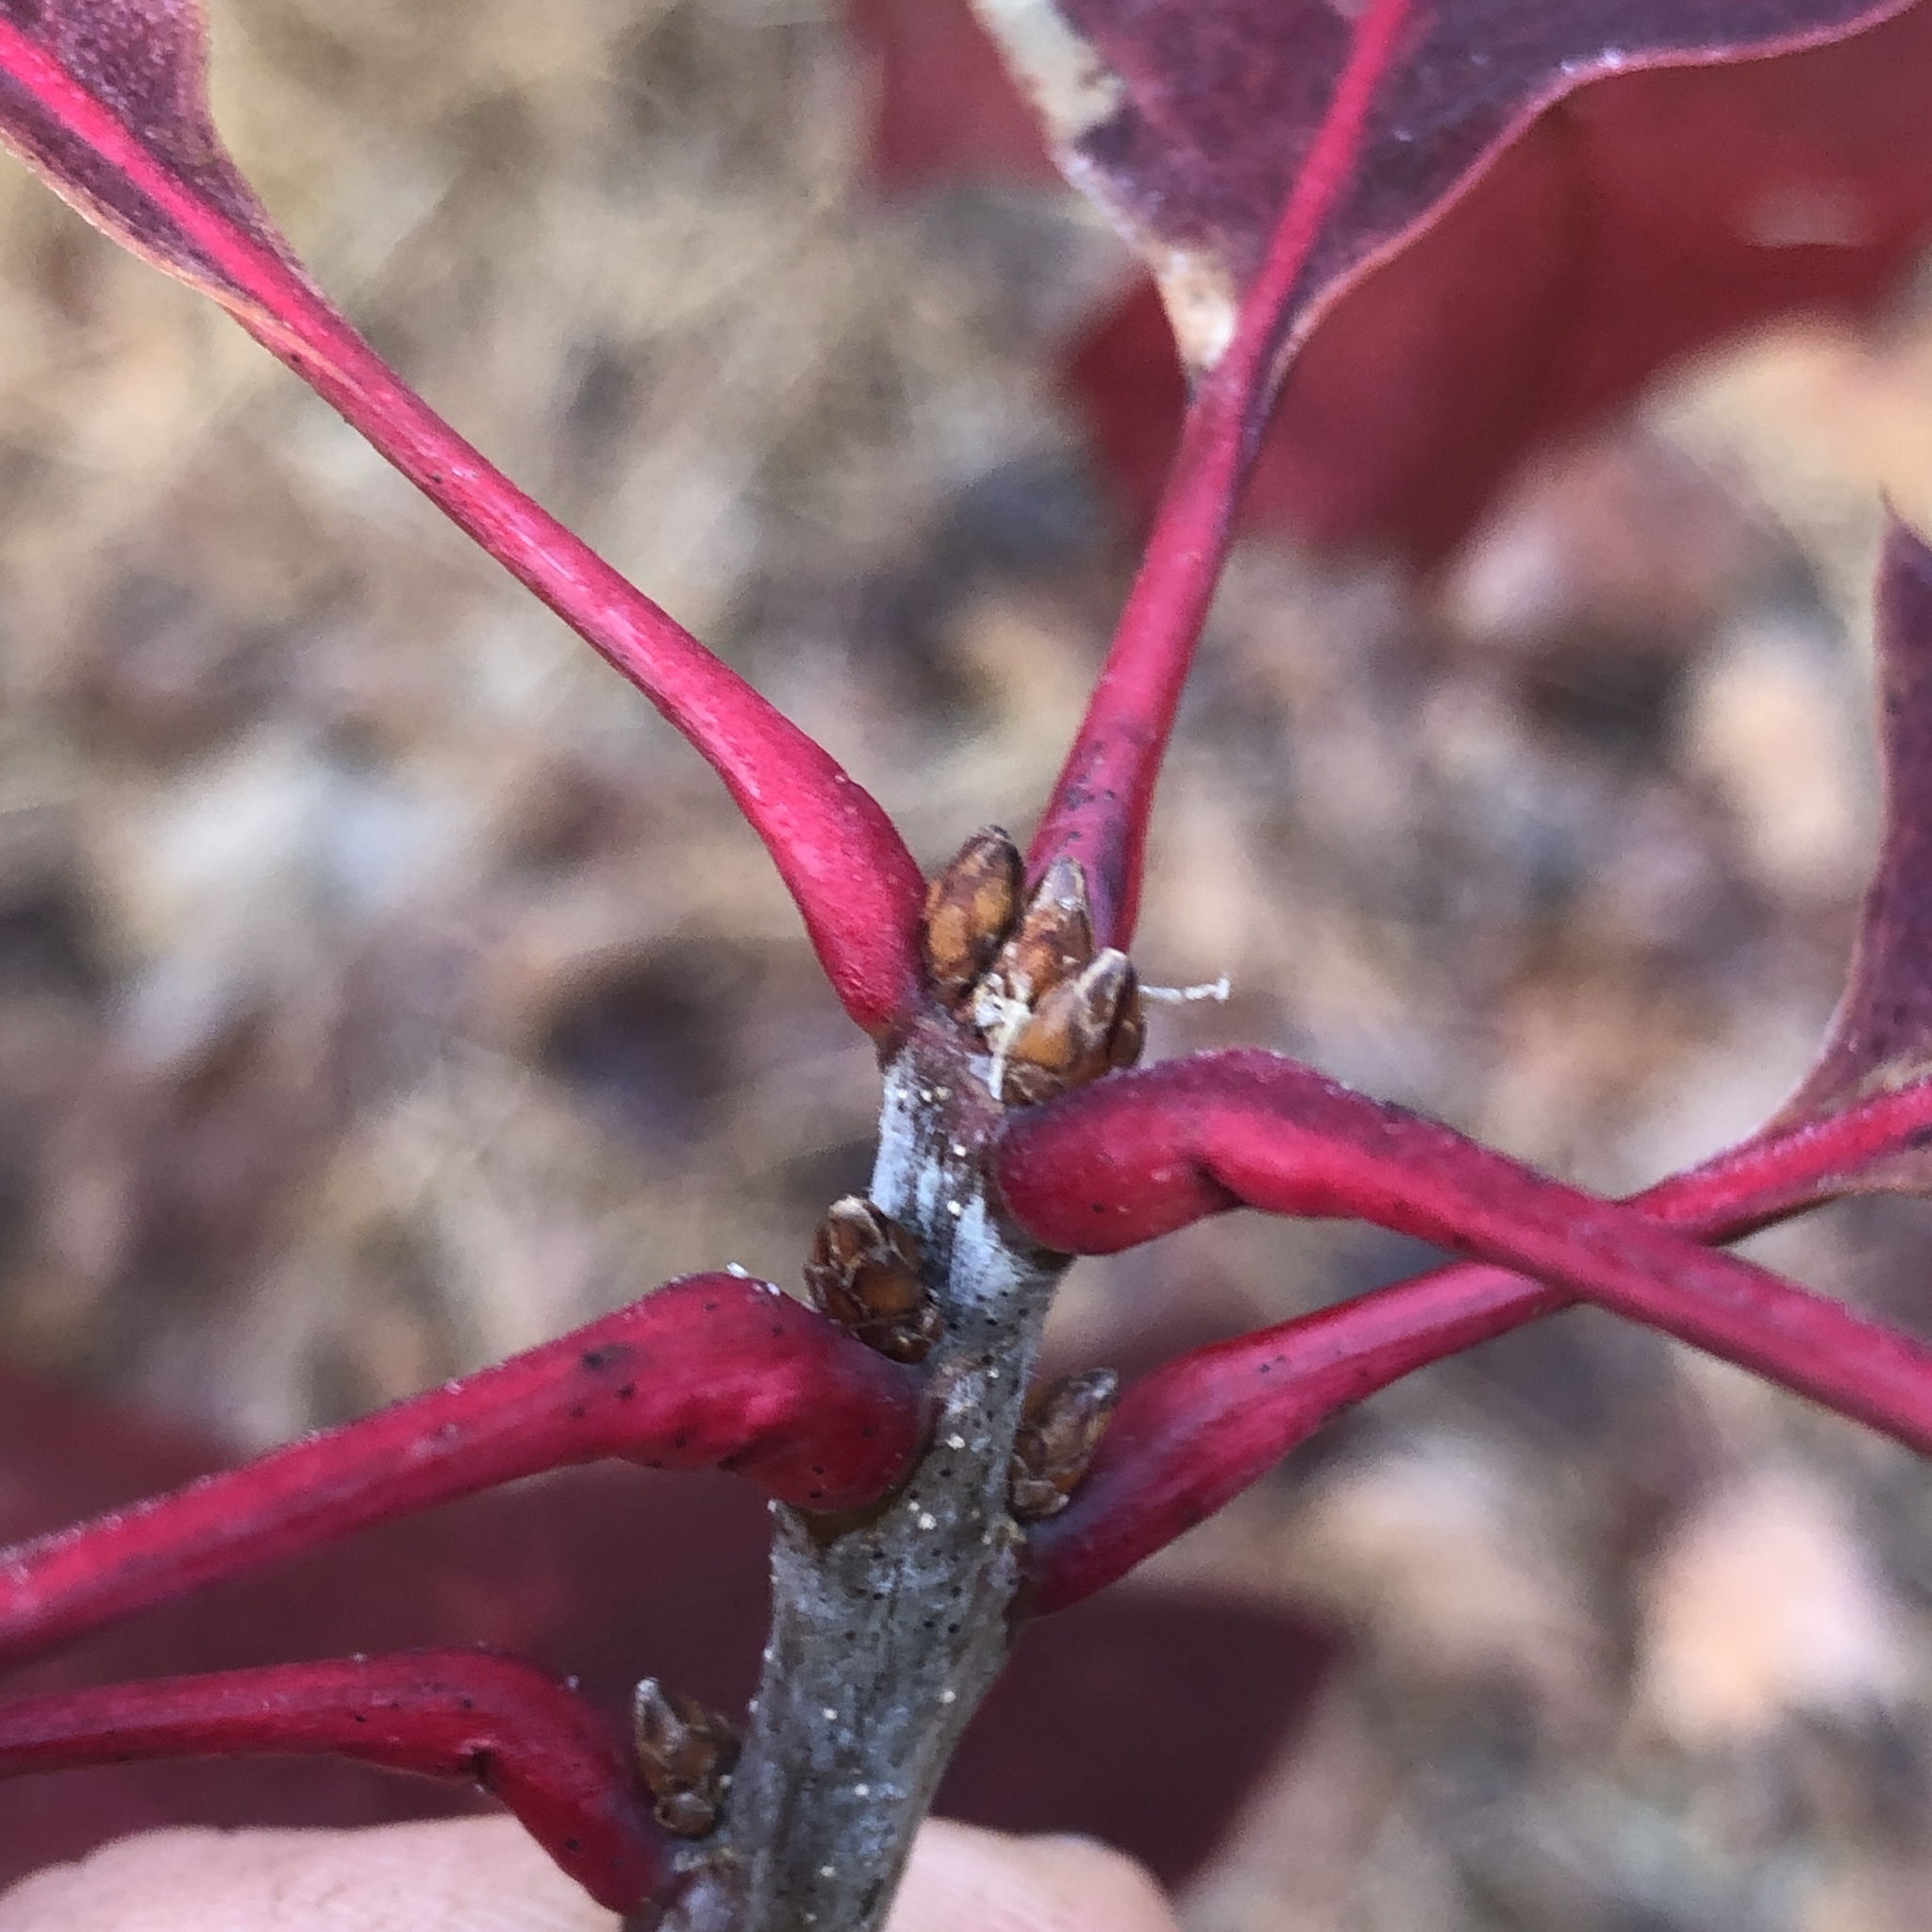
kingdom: Plantae
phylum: Tracheophyta
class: Magnoliopsida
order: Fagales
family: Fagaceae
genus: Quercus
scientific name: Quercus rubra
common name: Red oak
